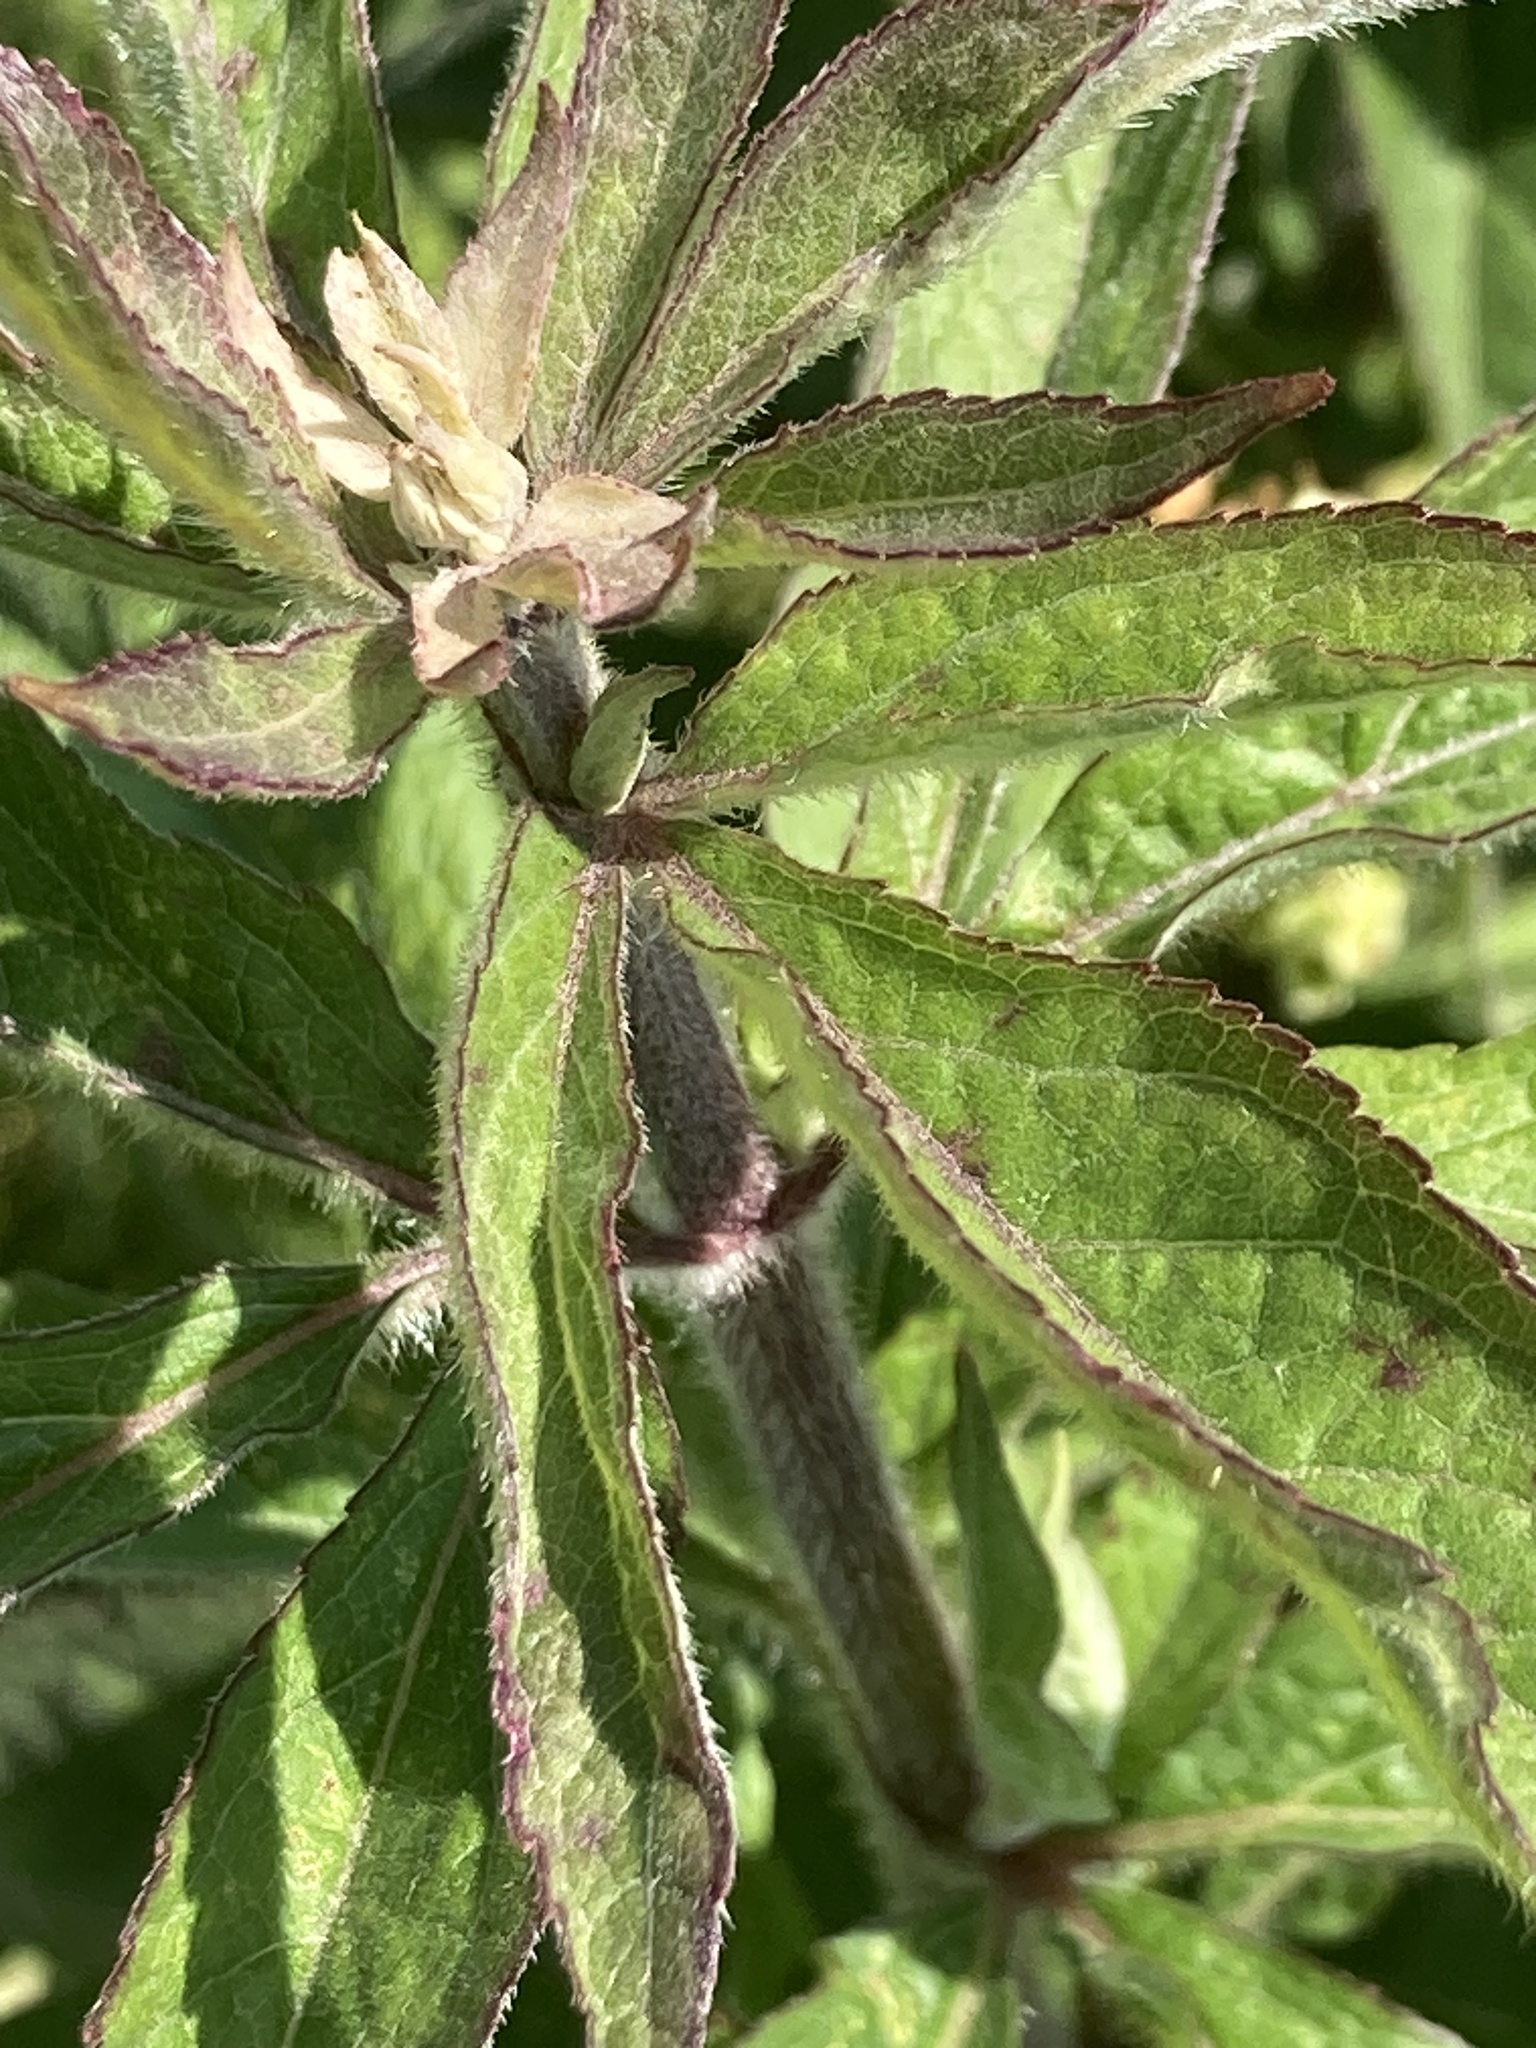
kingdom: Plantae
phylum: Tracheophyta
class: Magnoliopsida
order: Asterales
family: Asteraceae
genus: Eupatorium
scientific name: Eupatorium cannabinum
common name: Hemp-agrimony
